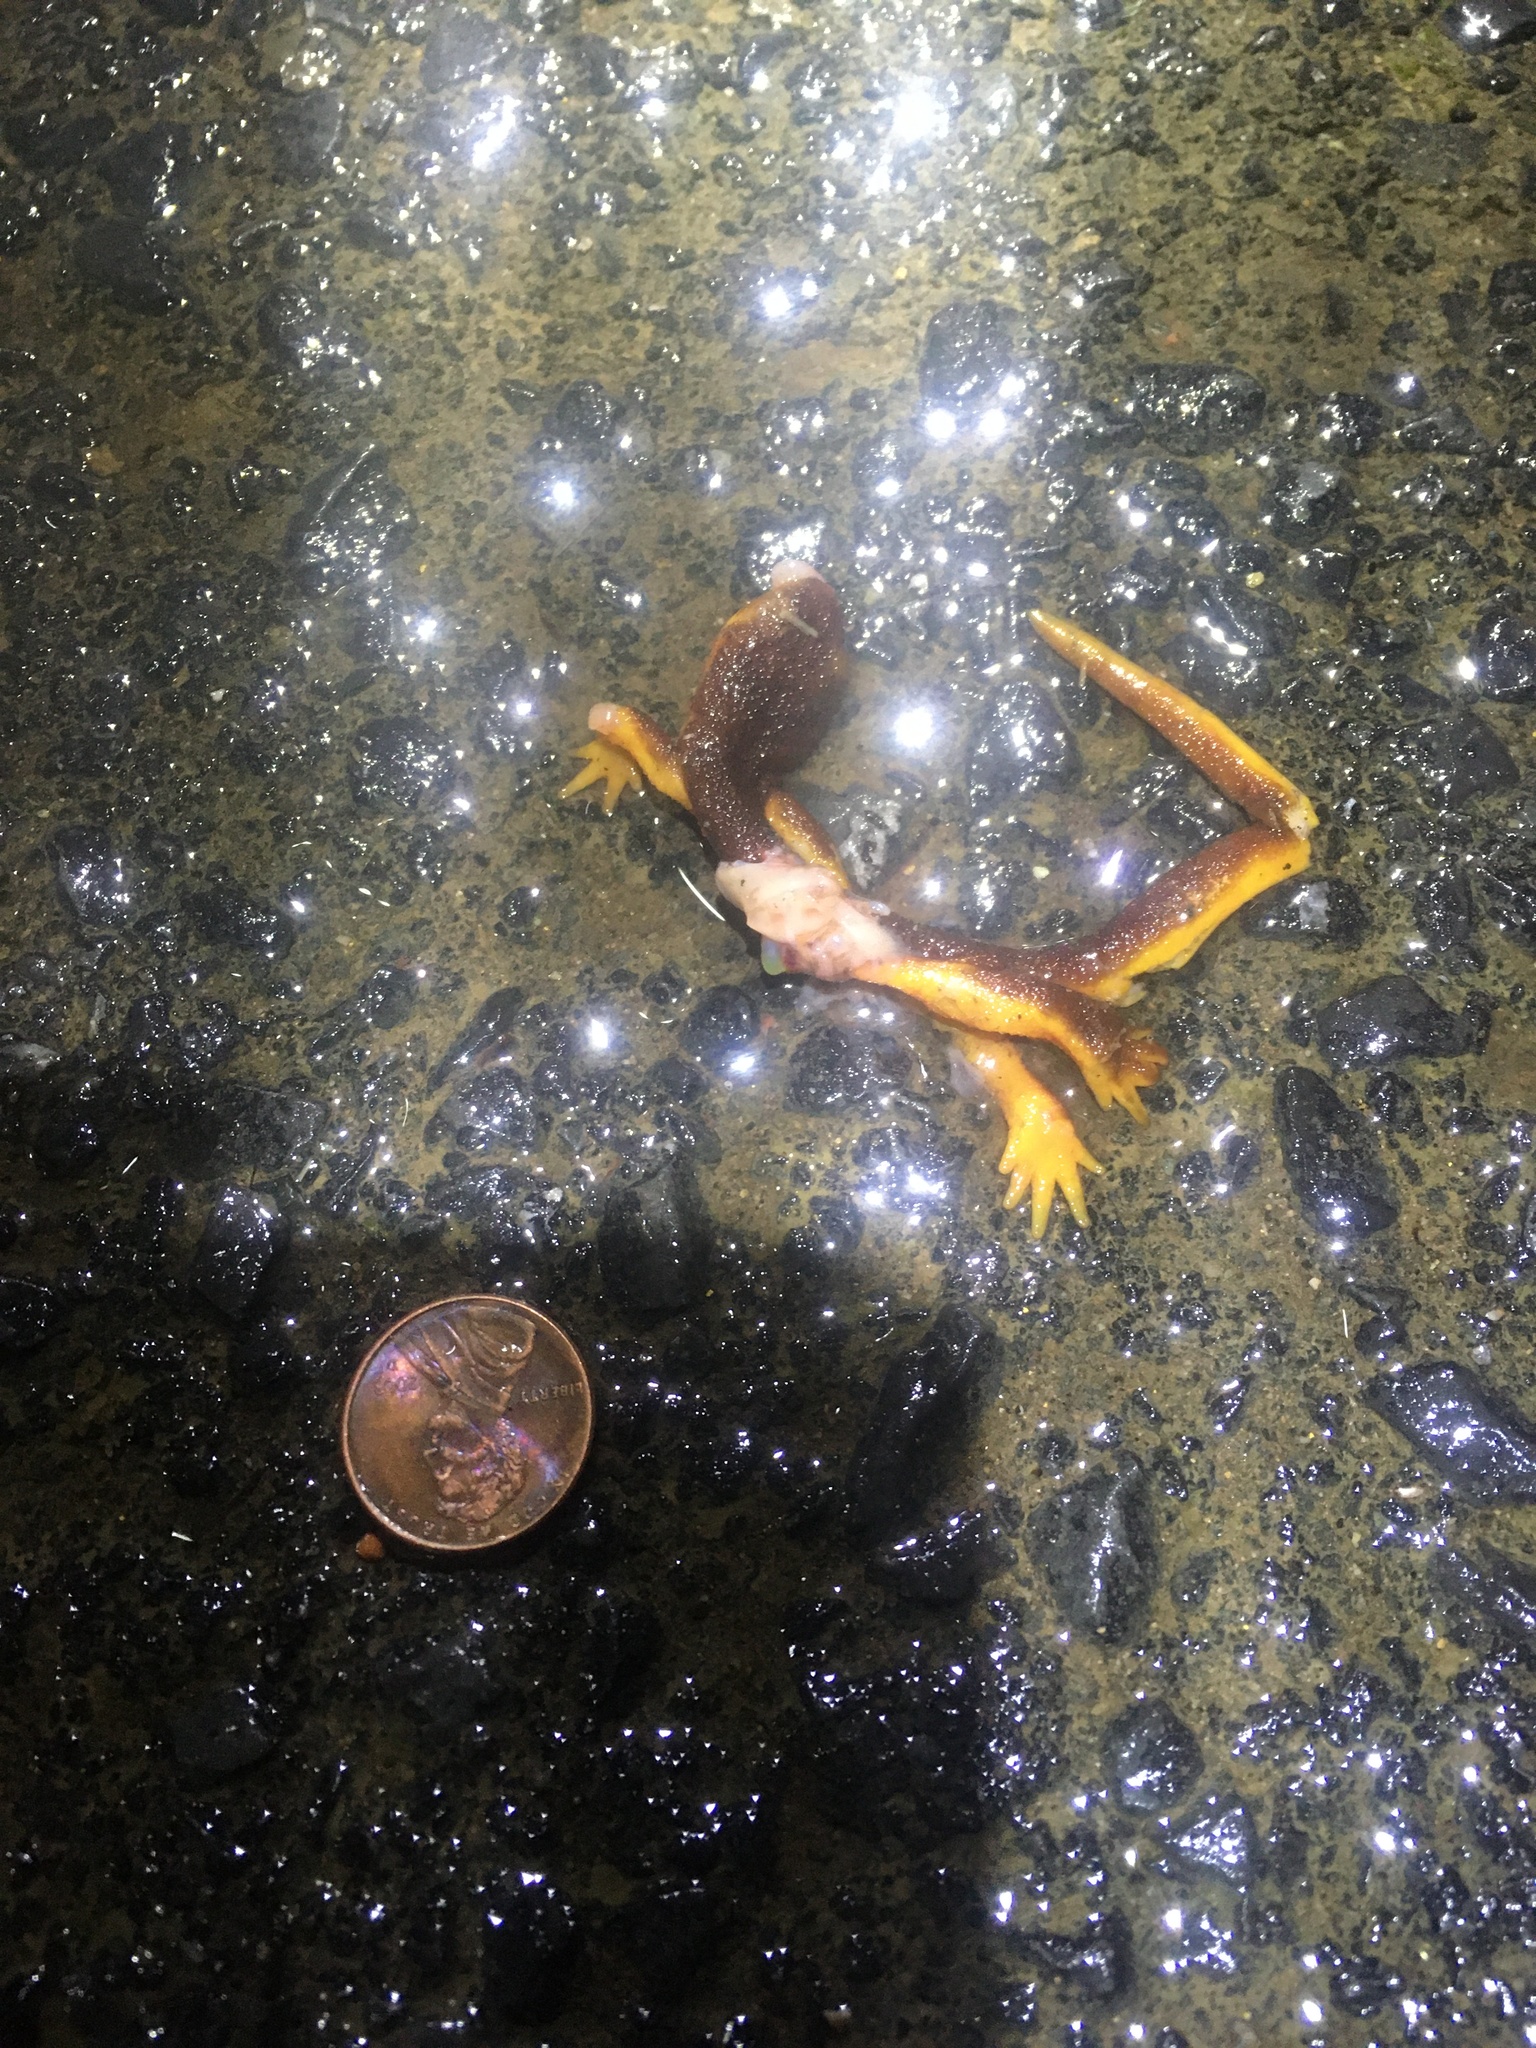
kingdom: Animalia
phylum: Chordata
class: Amphibia
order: Caudata
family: Salamandridae
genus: Taricha
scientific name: Taricha
